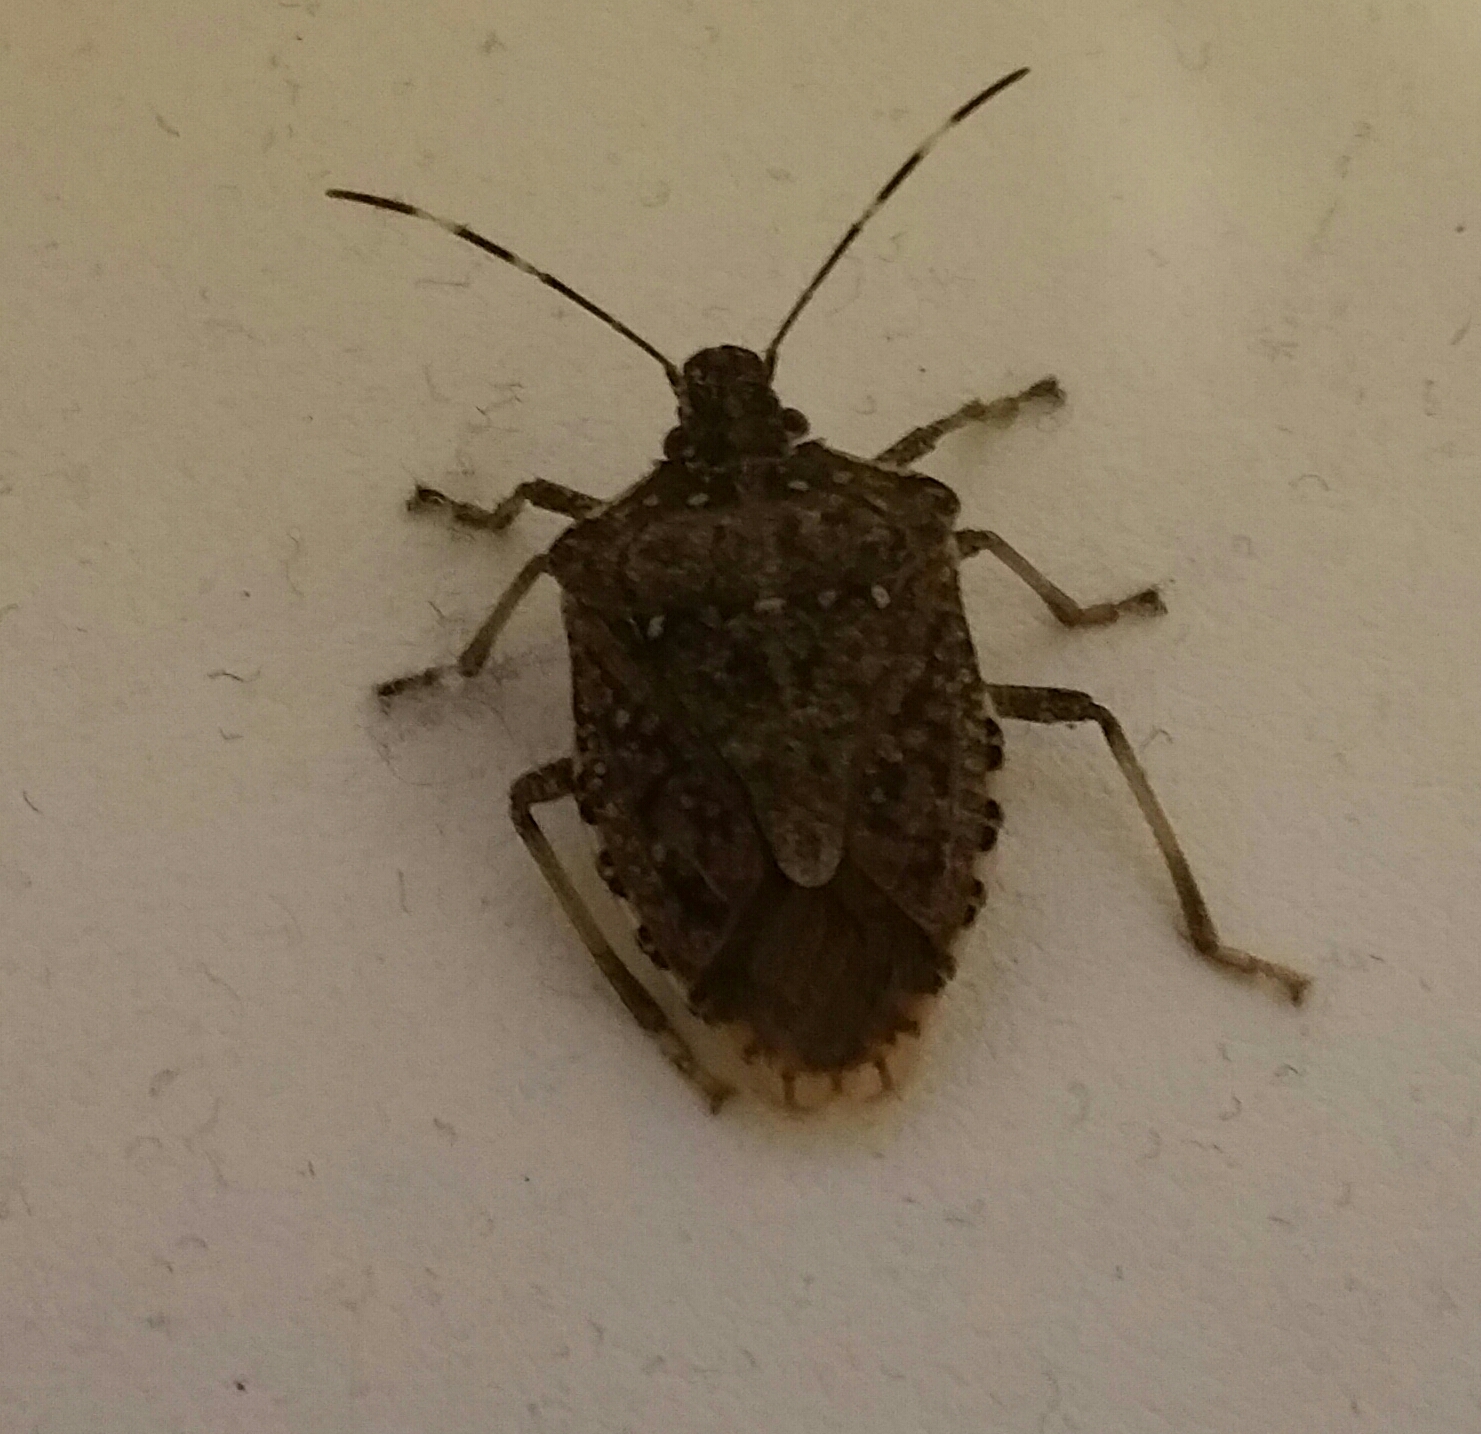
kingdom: Animalia
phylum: Arthropoda
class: Insecta
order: Hemiptera
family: Pentatomidae
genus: Halyomorpha
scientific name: Halyomorpha halys
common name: Brown marmorated stink bug
